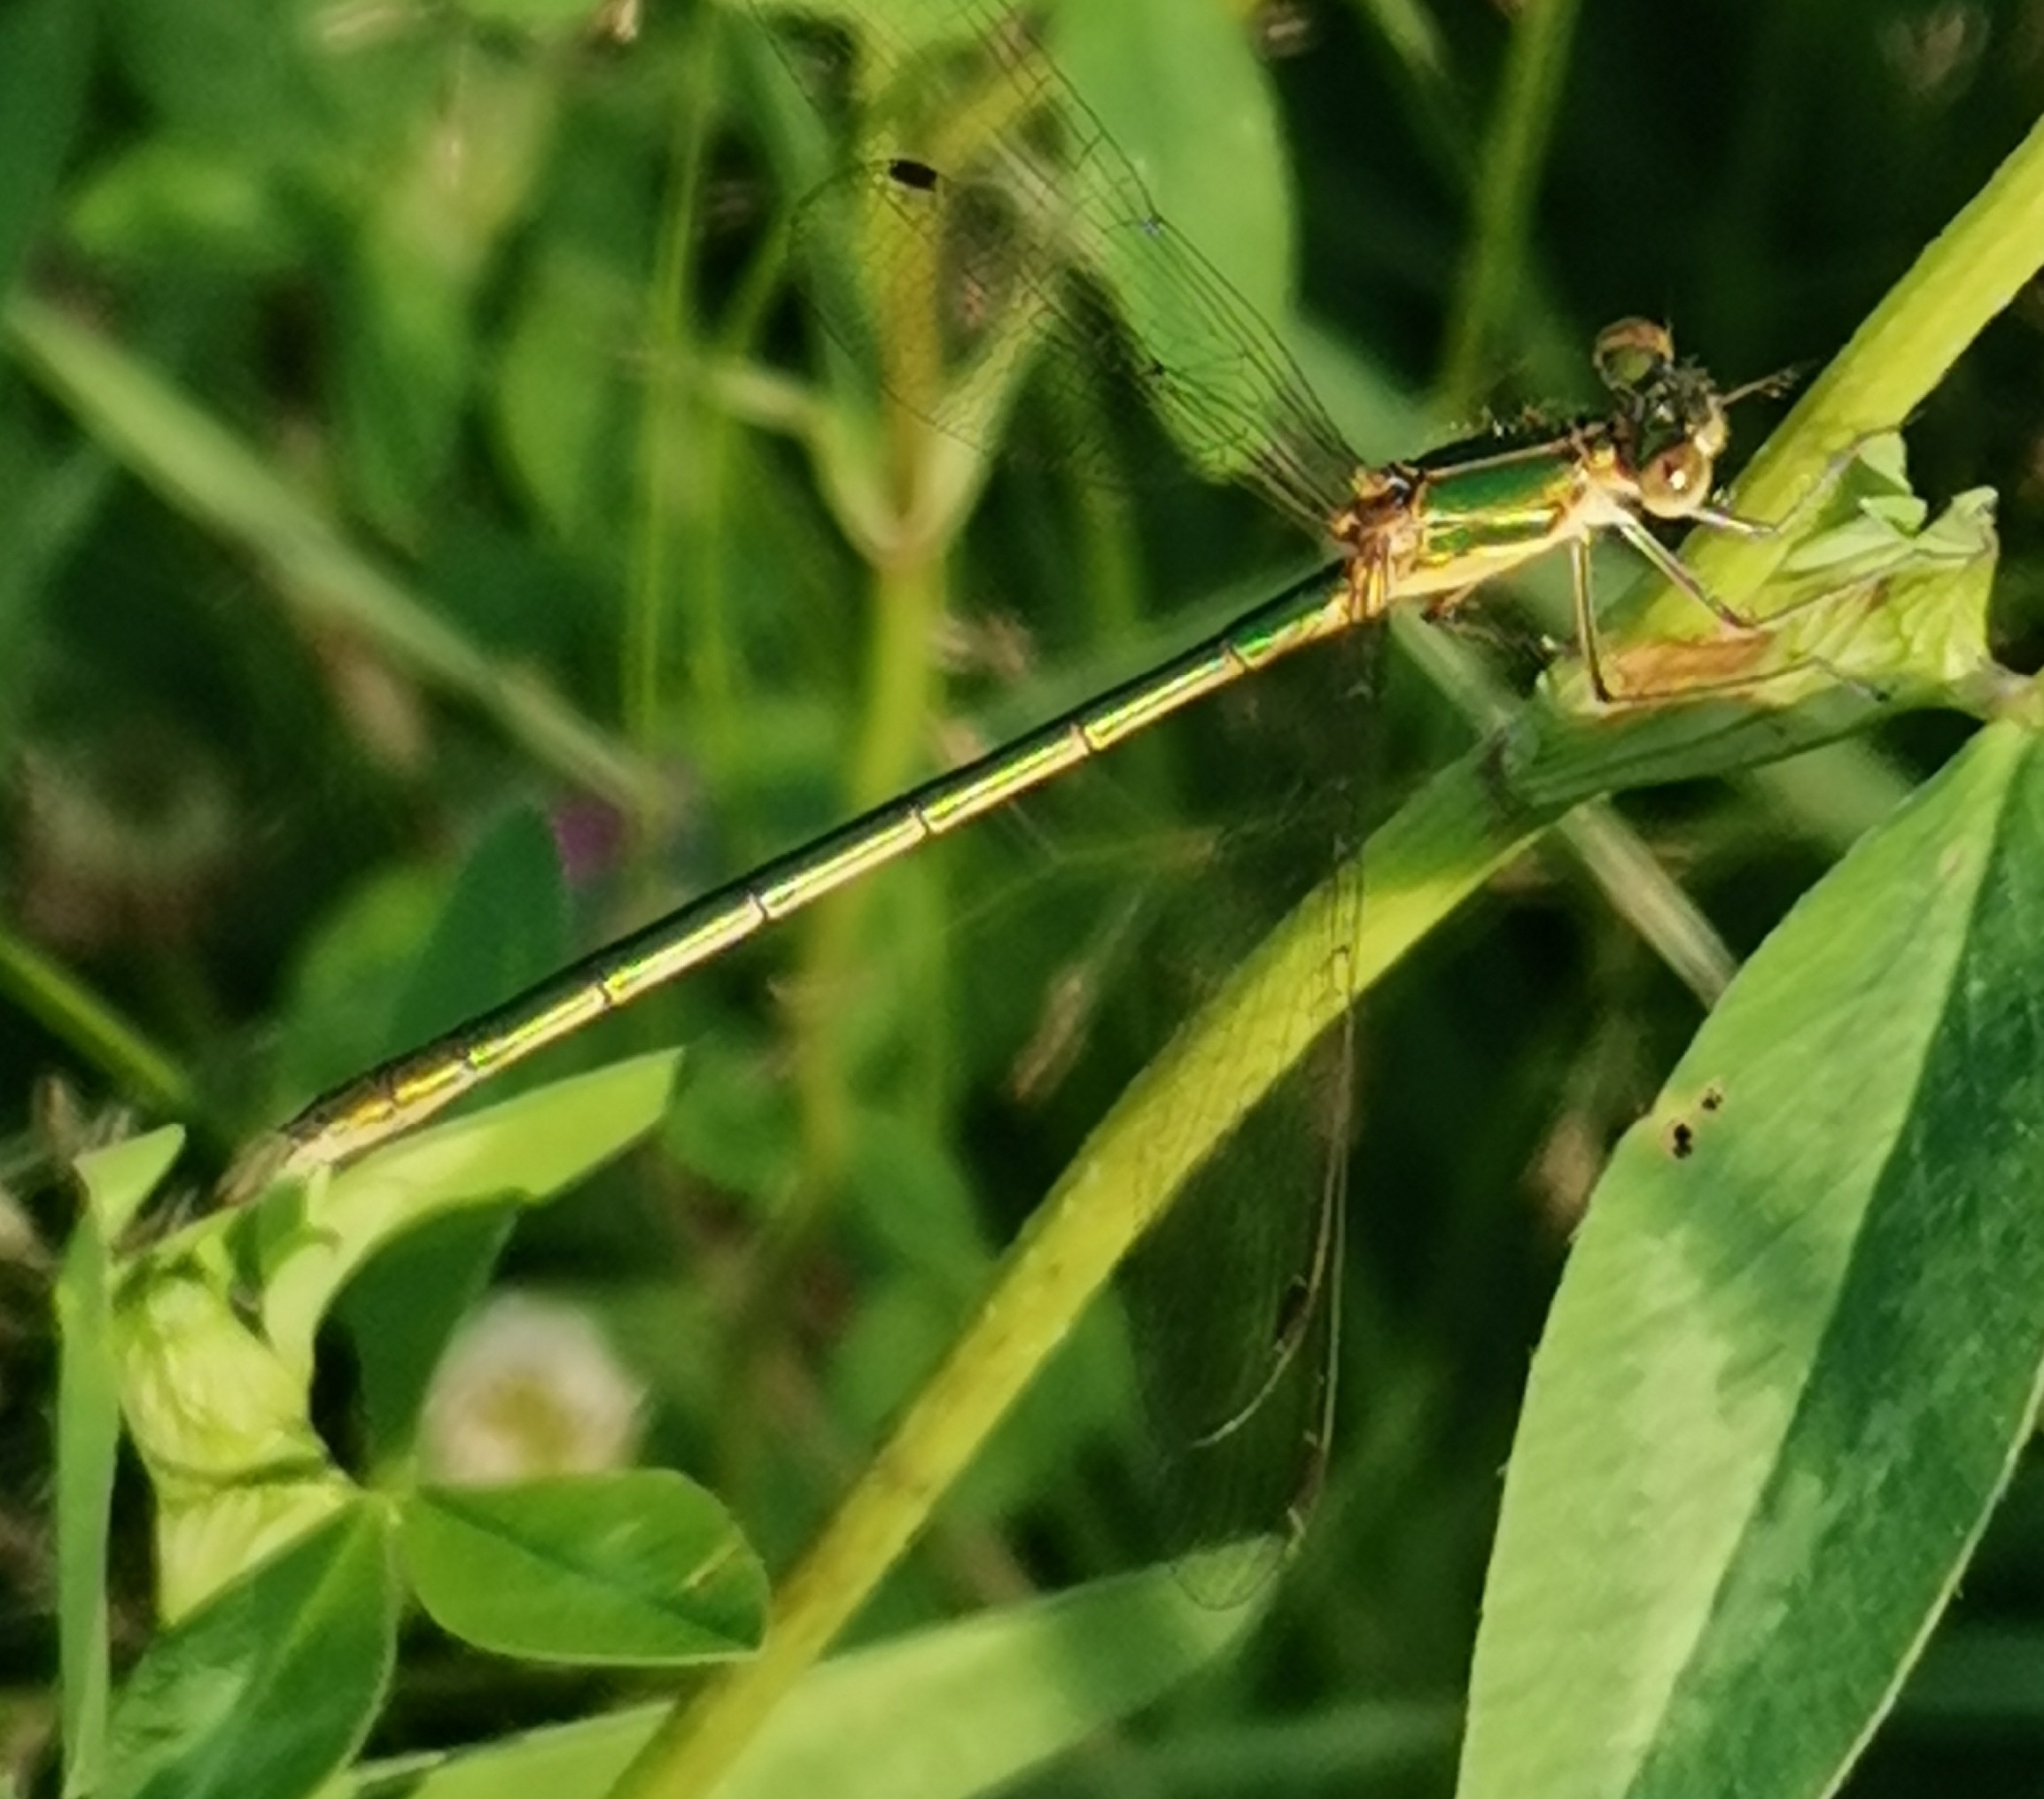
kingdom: Animalia
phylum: Arthropoda
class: Insecta
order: Odonata
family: Lestidae
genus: Lestes
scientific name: Lestes sponsa
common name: Common spreadwing
